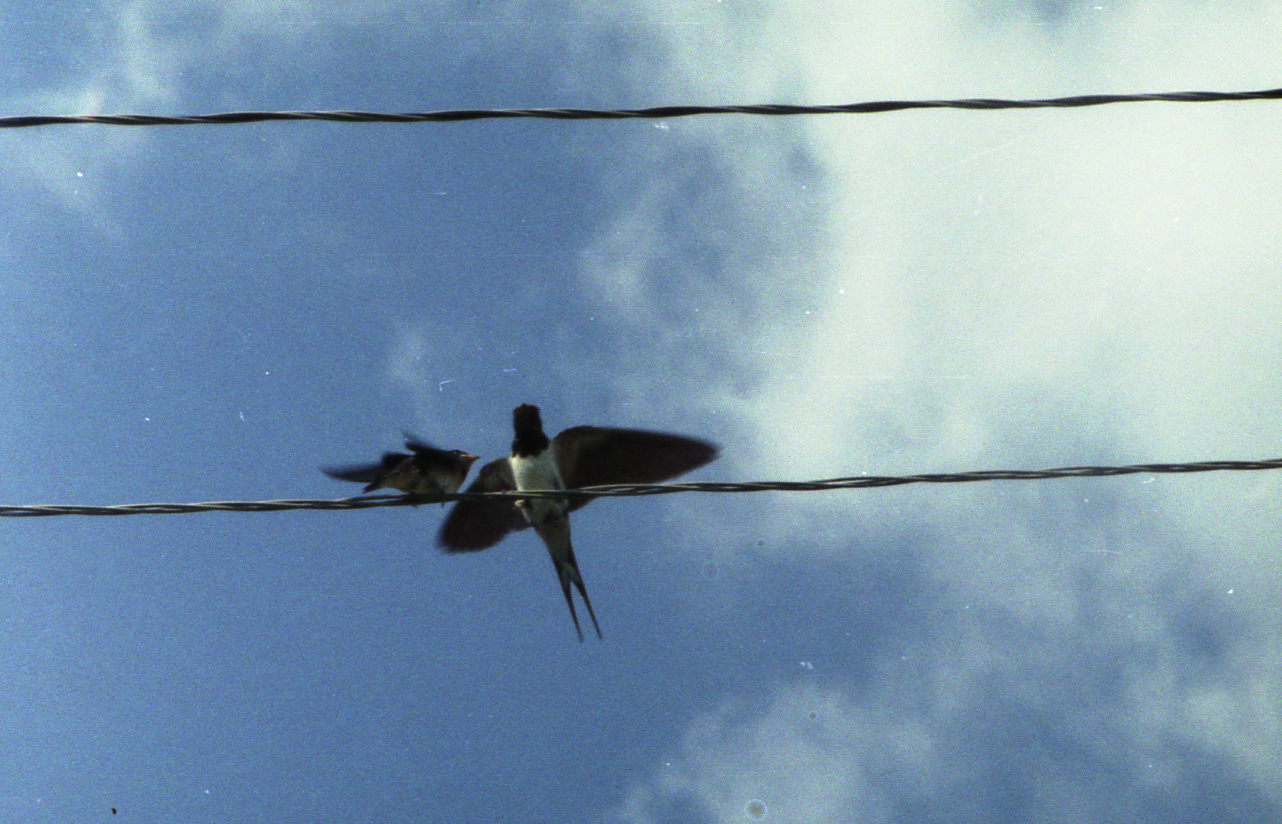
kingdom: Animalia
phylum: Chordata
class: Aves
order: Passeriformes
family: Hirundinidae
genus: Hirundo
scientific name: Hirundo rustica
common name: Barn swallow
